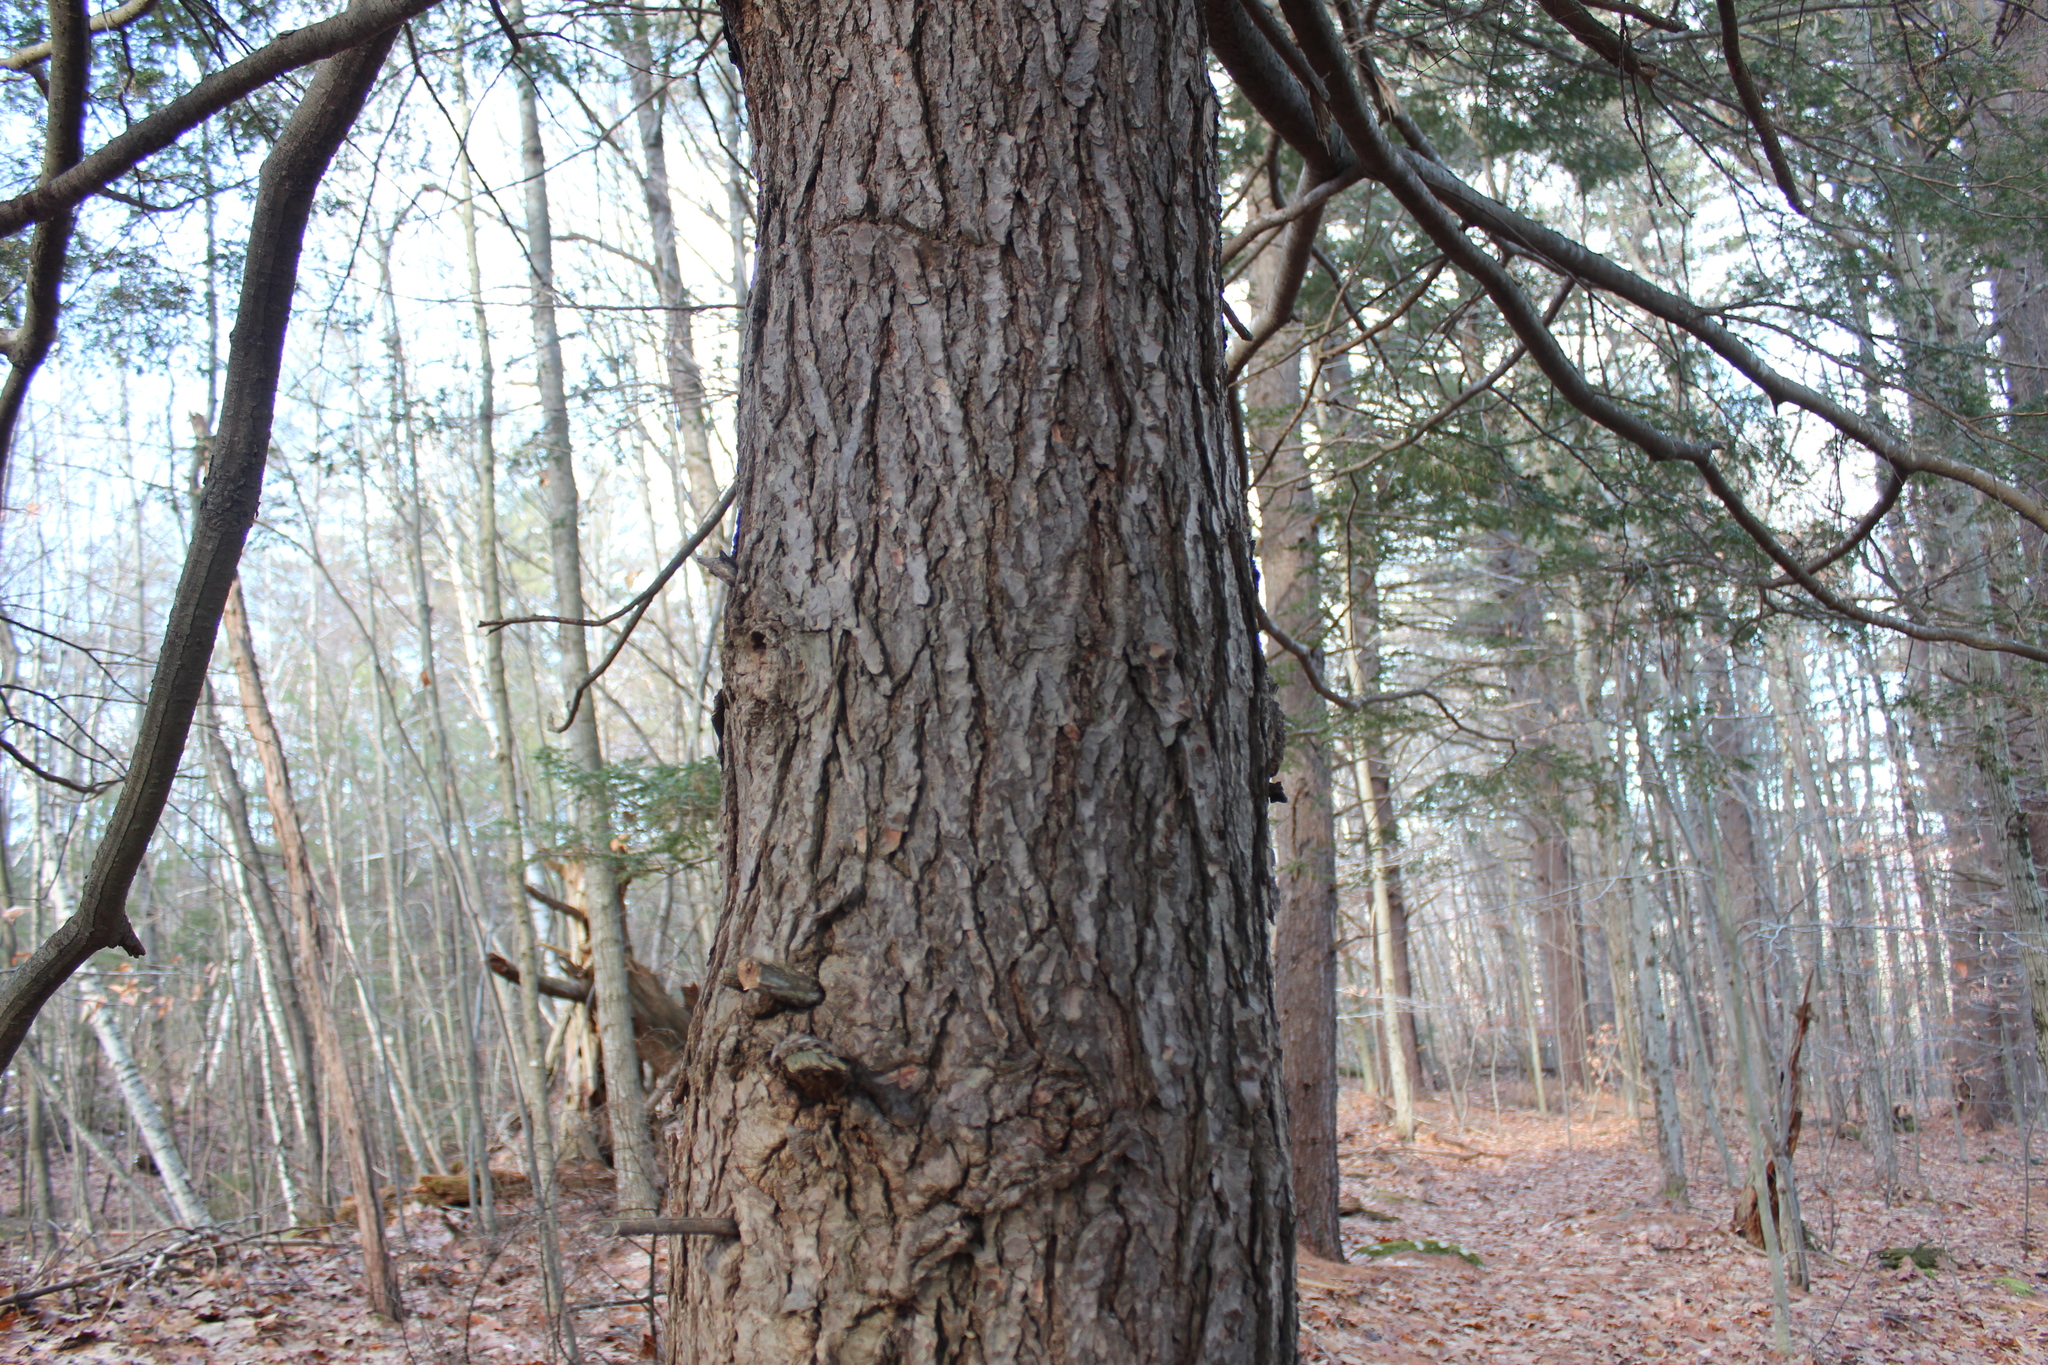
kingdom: Plantae
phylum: Tracheophyta
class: Pinopsida
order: Pinales
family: Pinaceae
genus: Tsuga
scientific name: Tsuga canadensis
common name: Eastern hemlock
